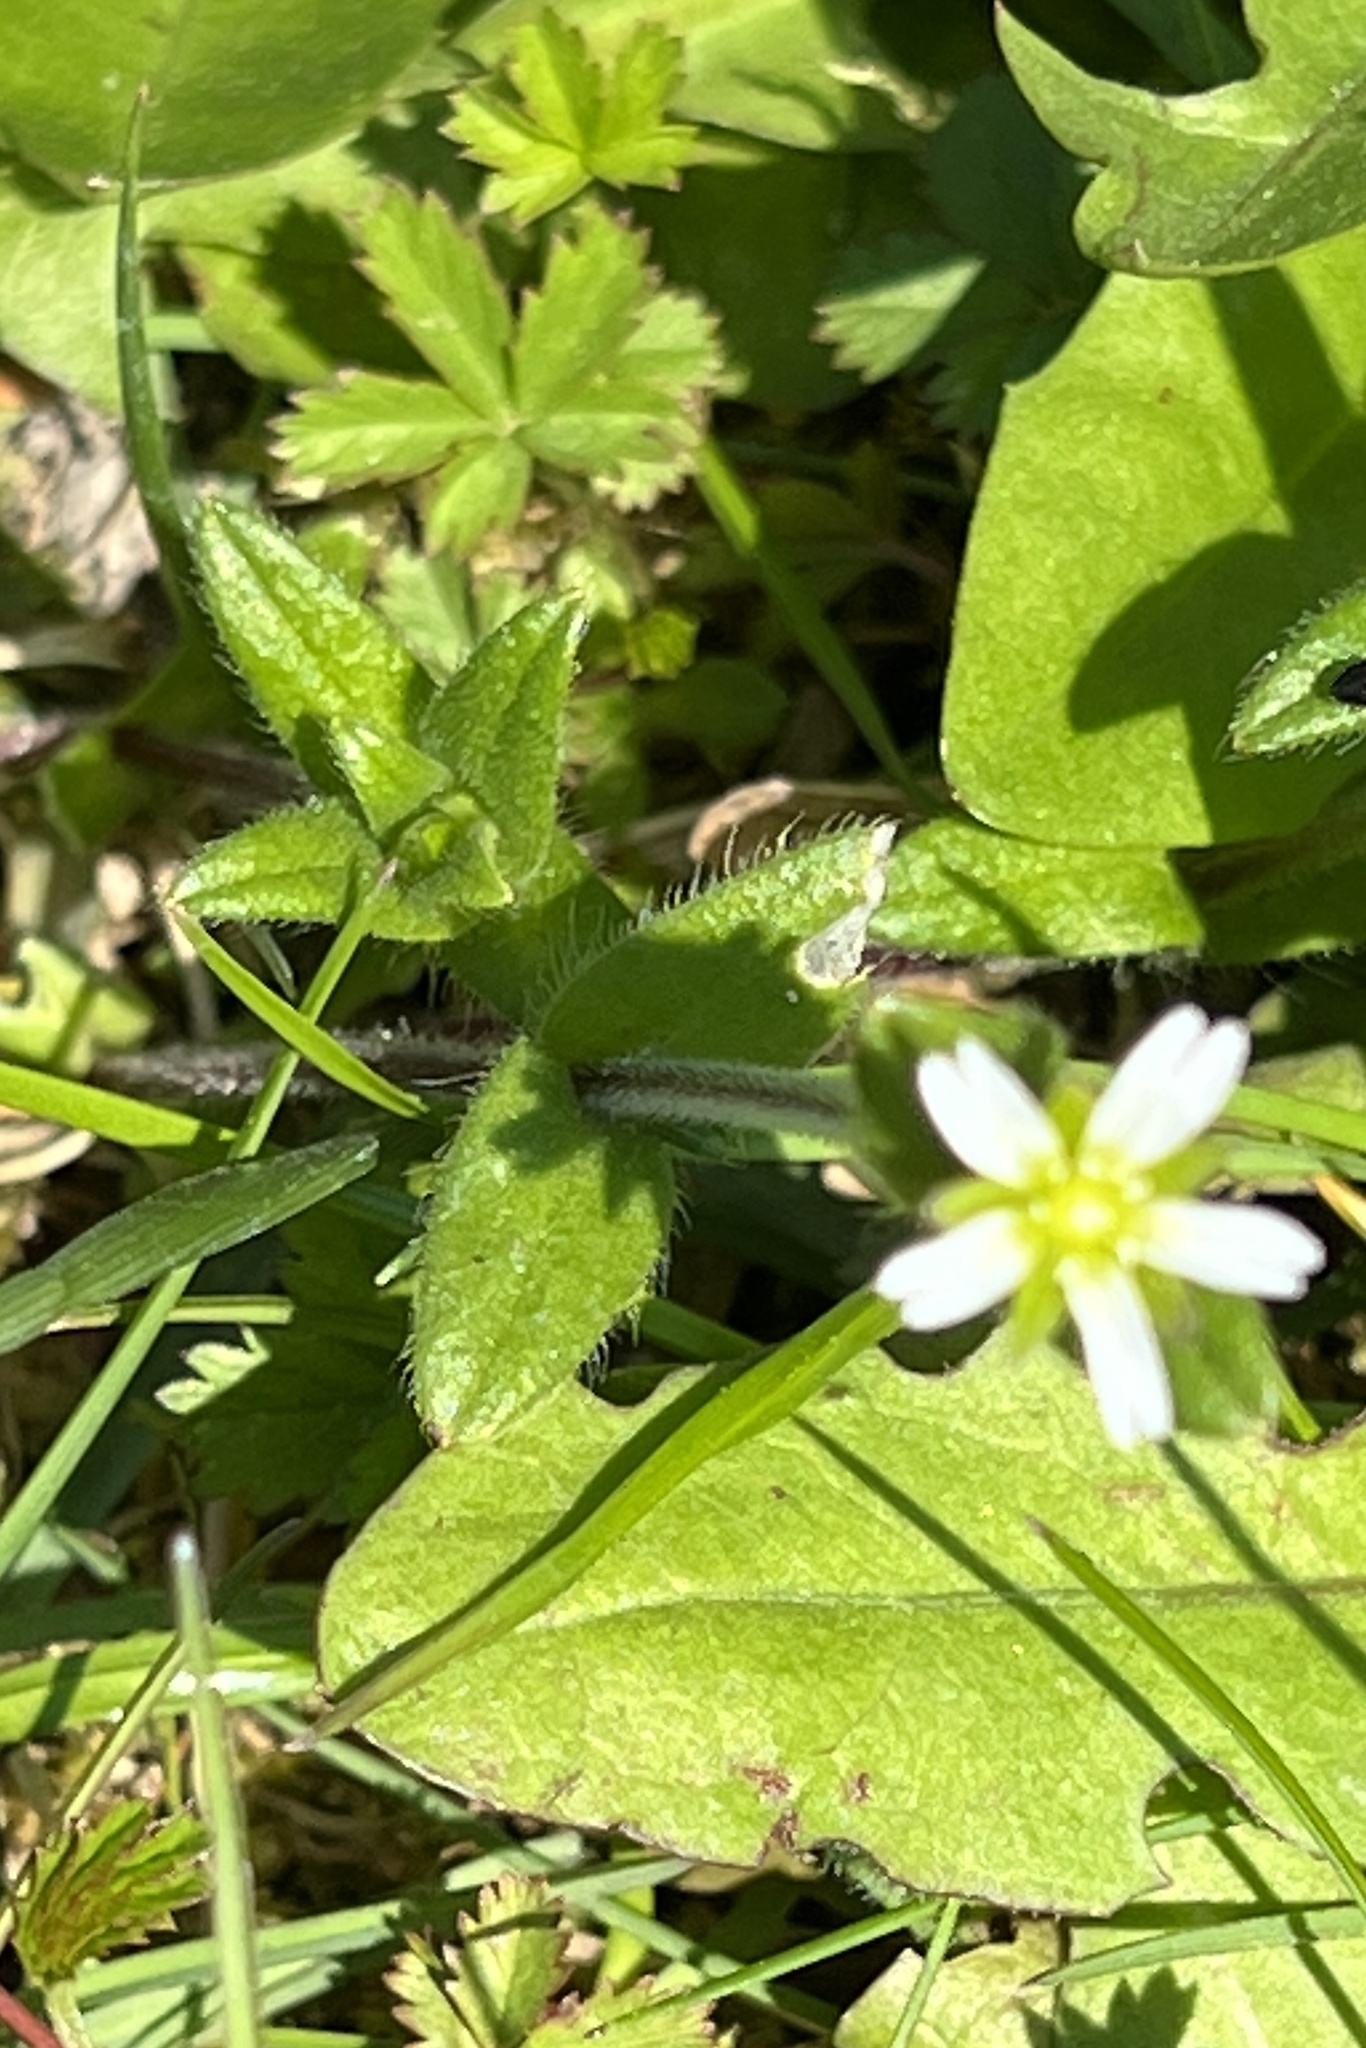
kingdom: Plantae
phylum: Tracheophyta
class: Magnoliopsida
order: Caryophyllales
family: Caryophyllaceae
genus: Cerastium
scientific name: Cerastium holosteoides
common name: Big chickweed
